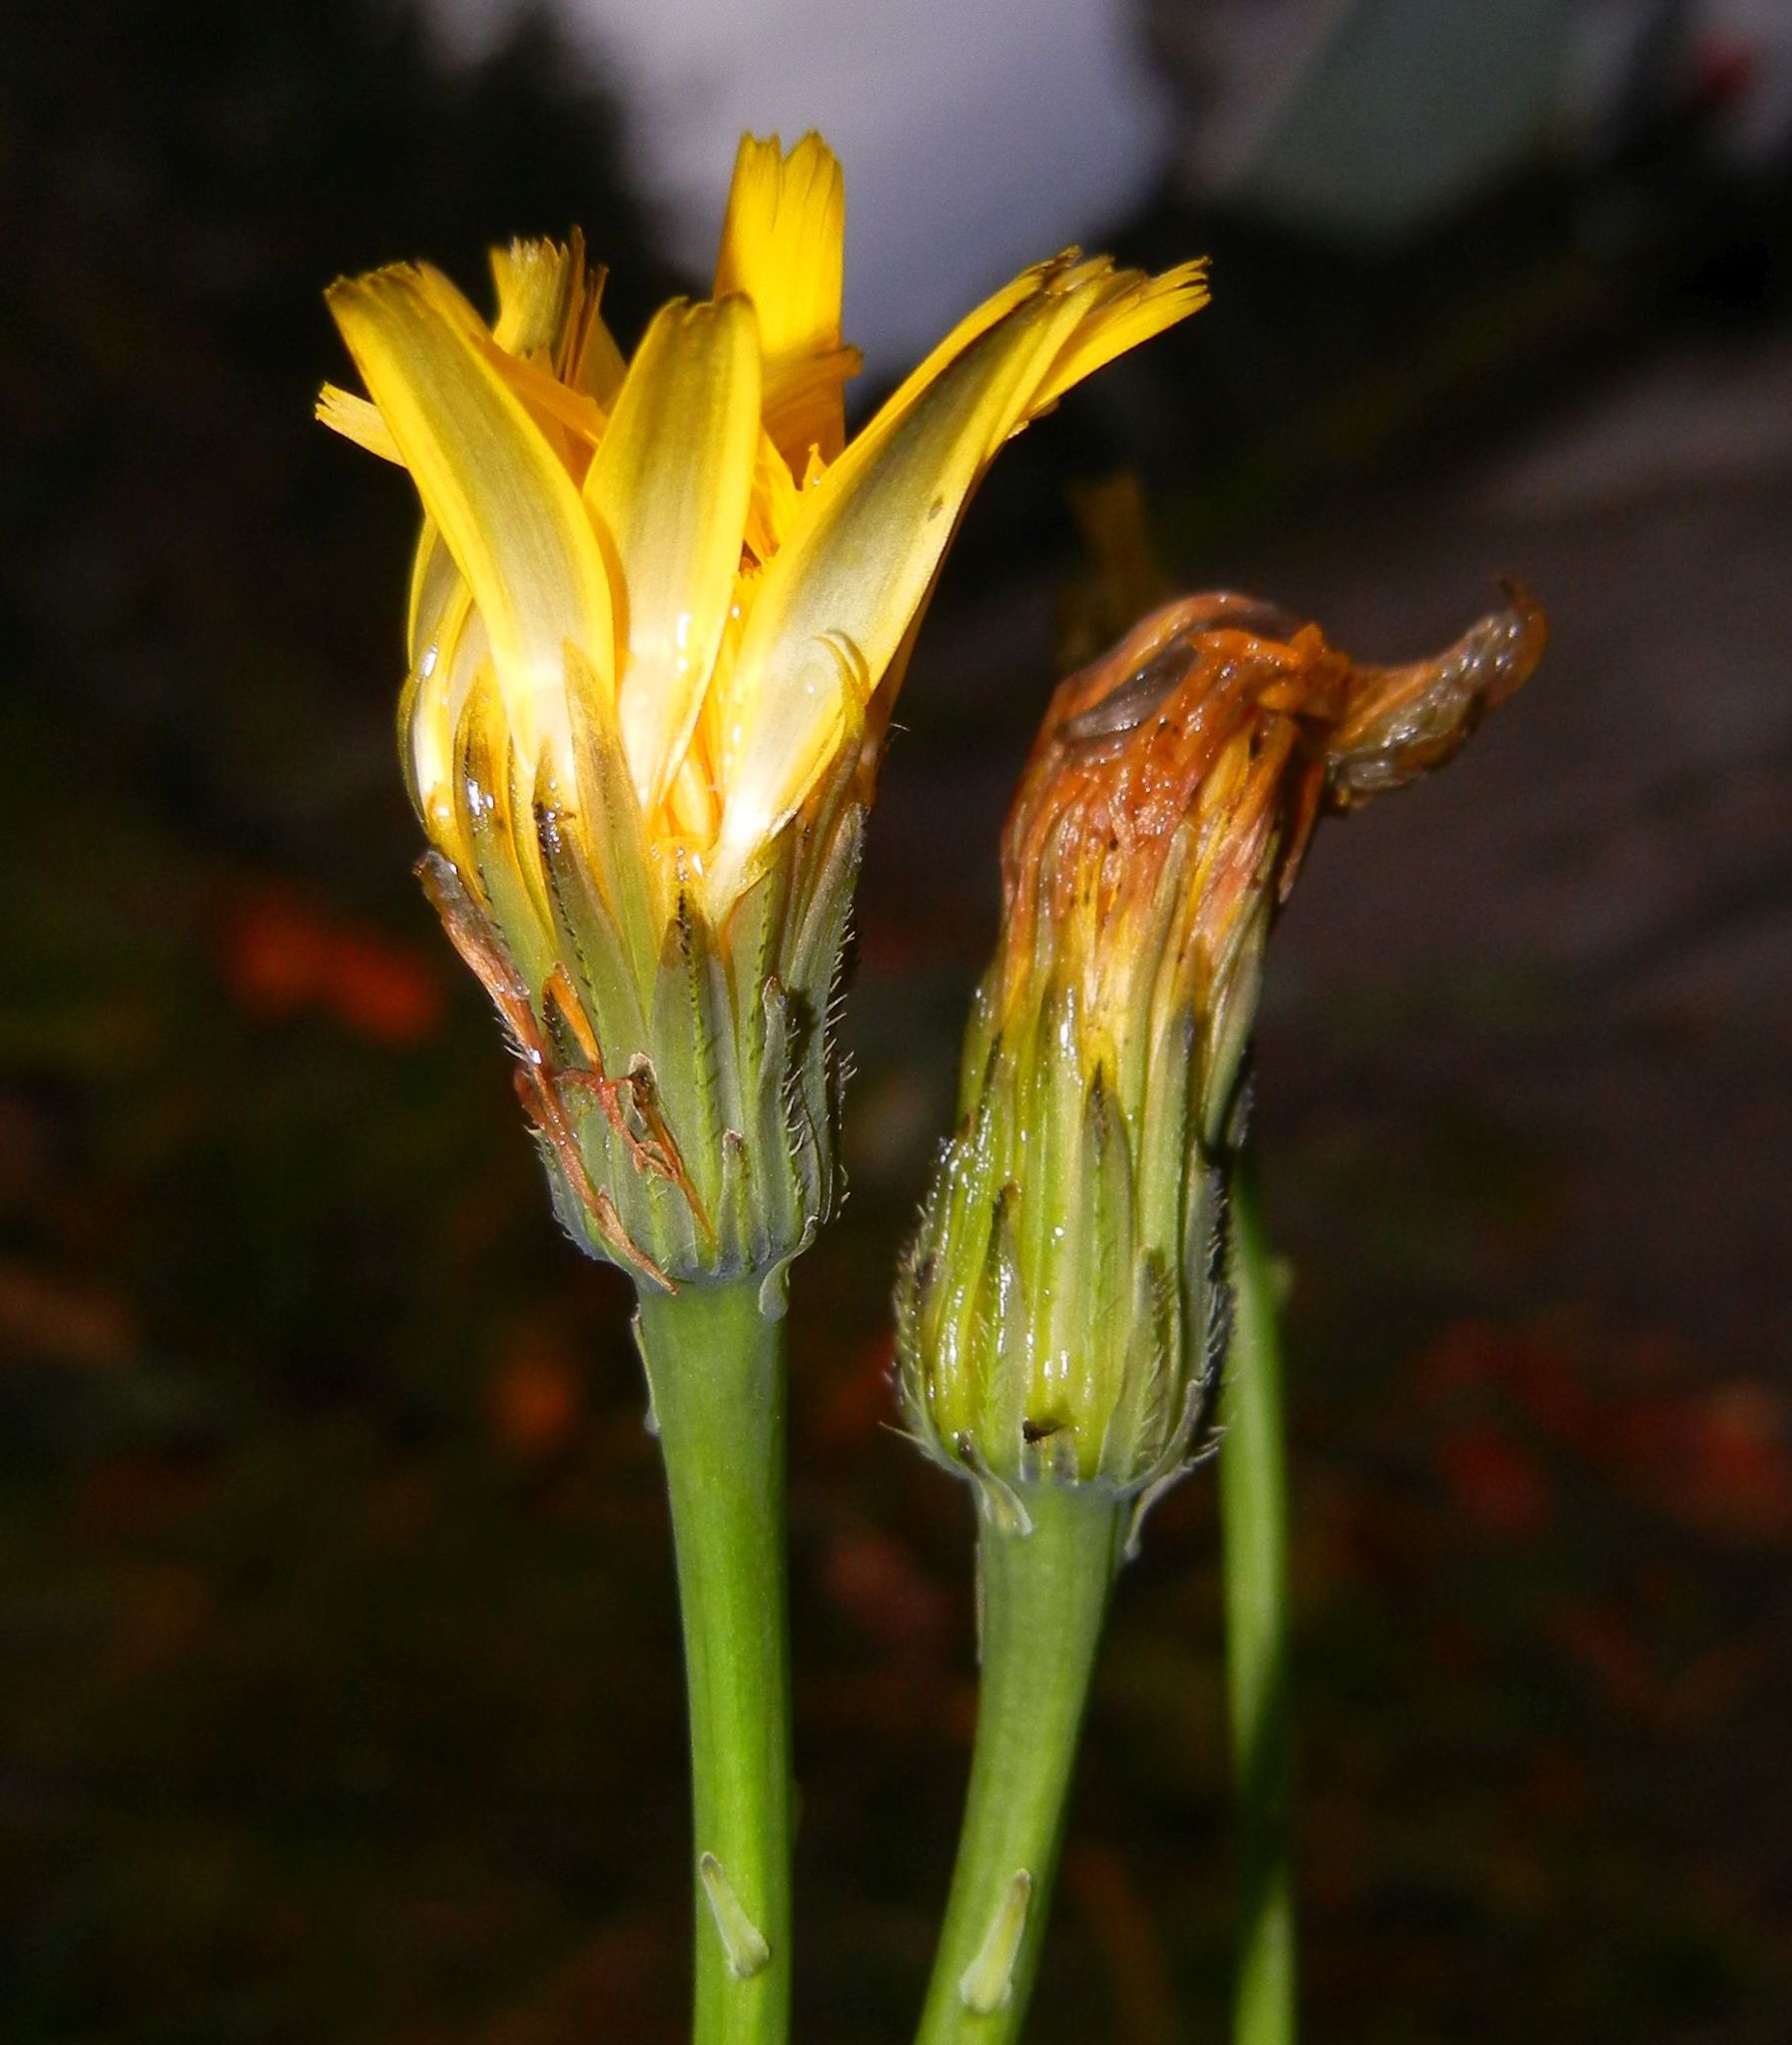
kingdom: Plantae
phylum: Tracheophyta
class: Magnoliopsida
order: Asterales
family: Asteraceae
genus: Hypochaeris
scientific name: Hypochaeris radicata
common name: Flatweed
